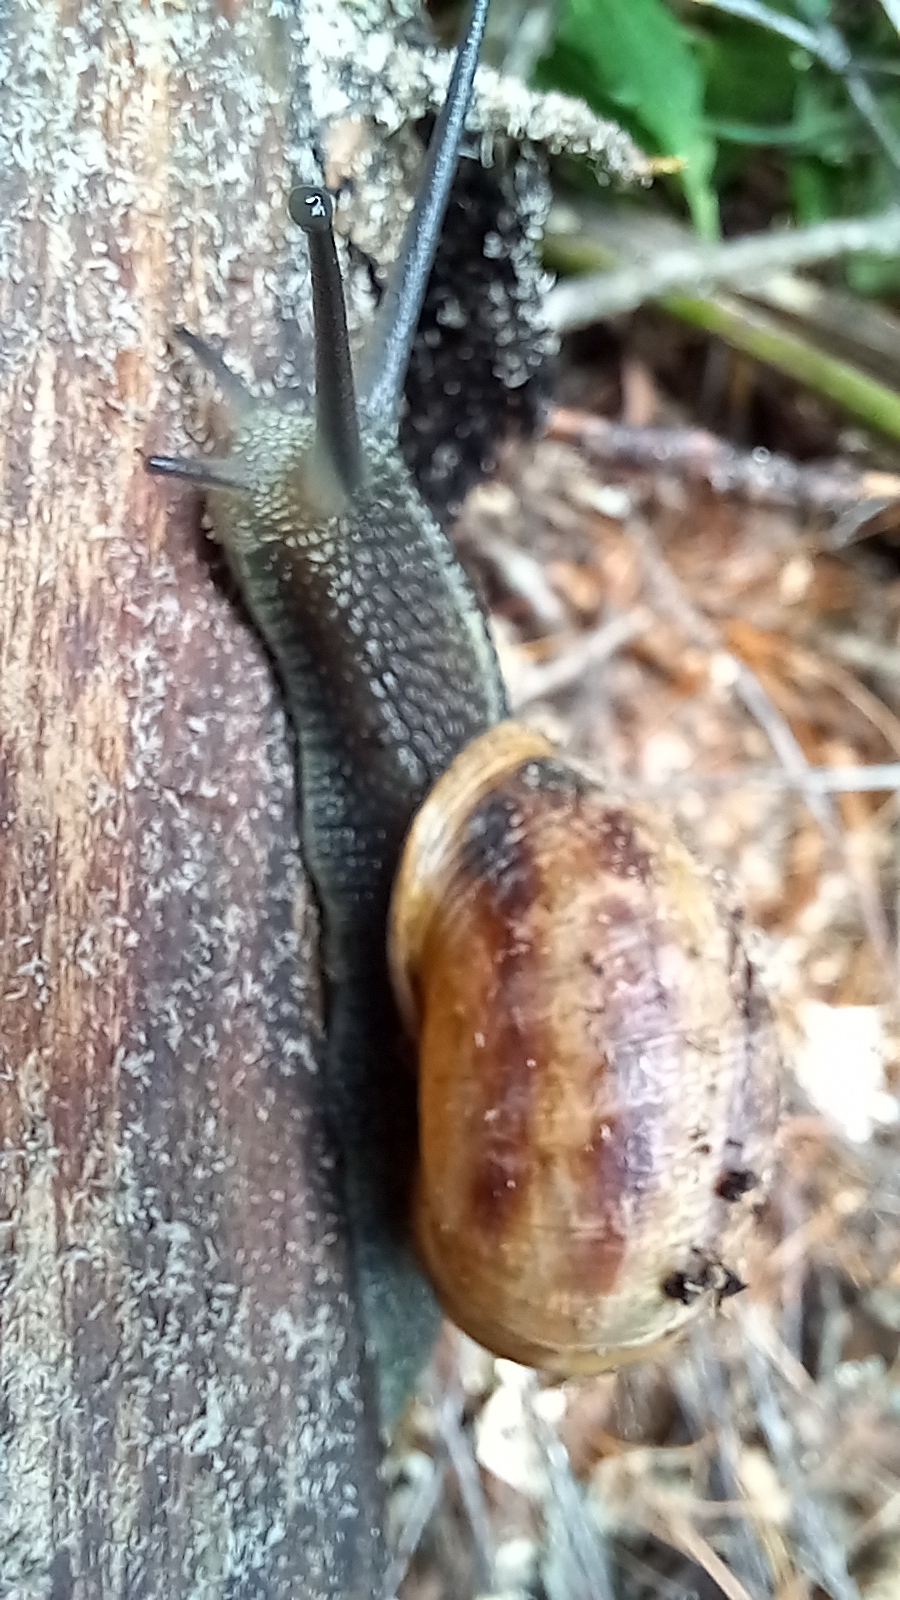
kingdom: Animalia
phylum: Mollusca
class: Gastropoda
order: Stylommatophora
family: Helicidae
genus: Cornu
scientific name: Cornu aspersum
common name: Brown garden snail
